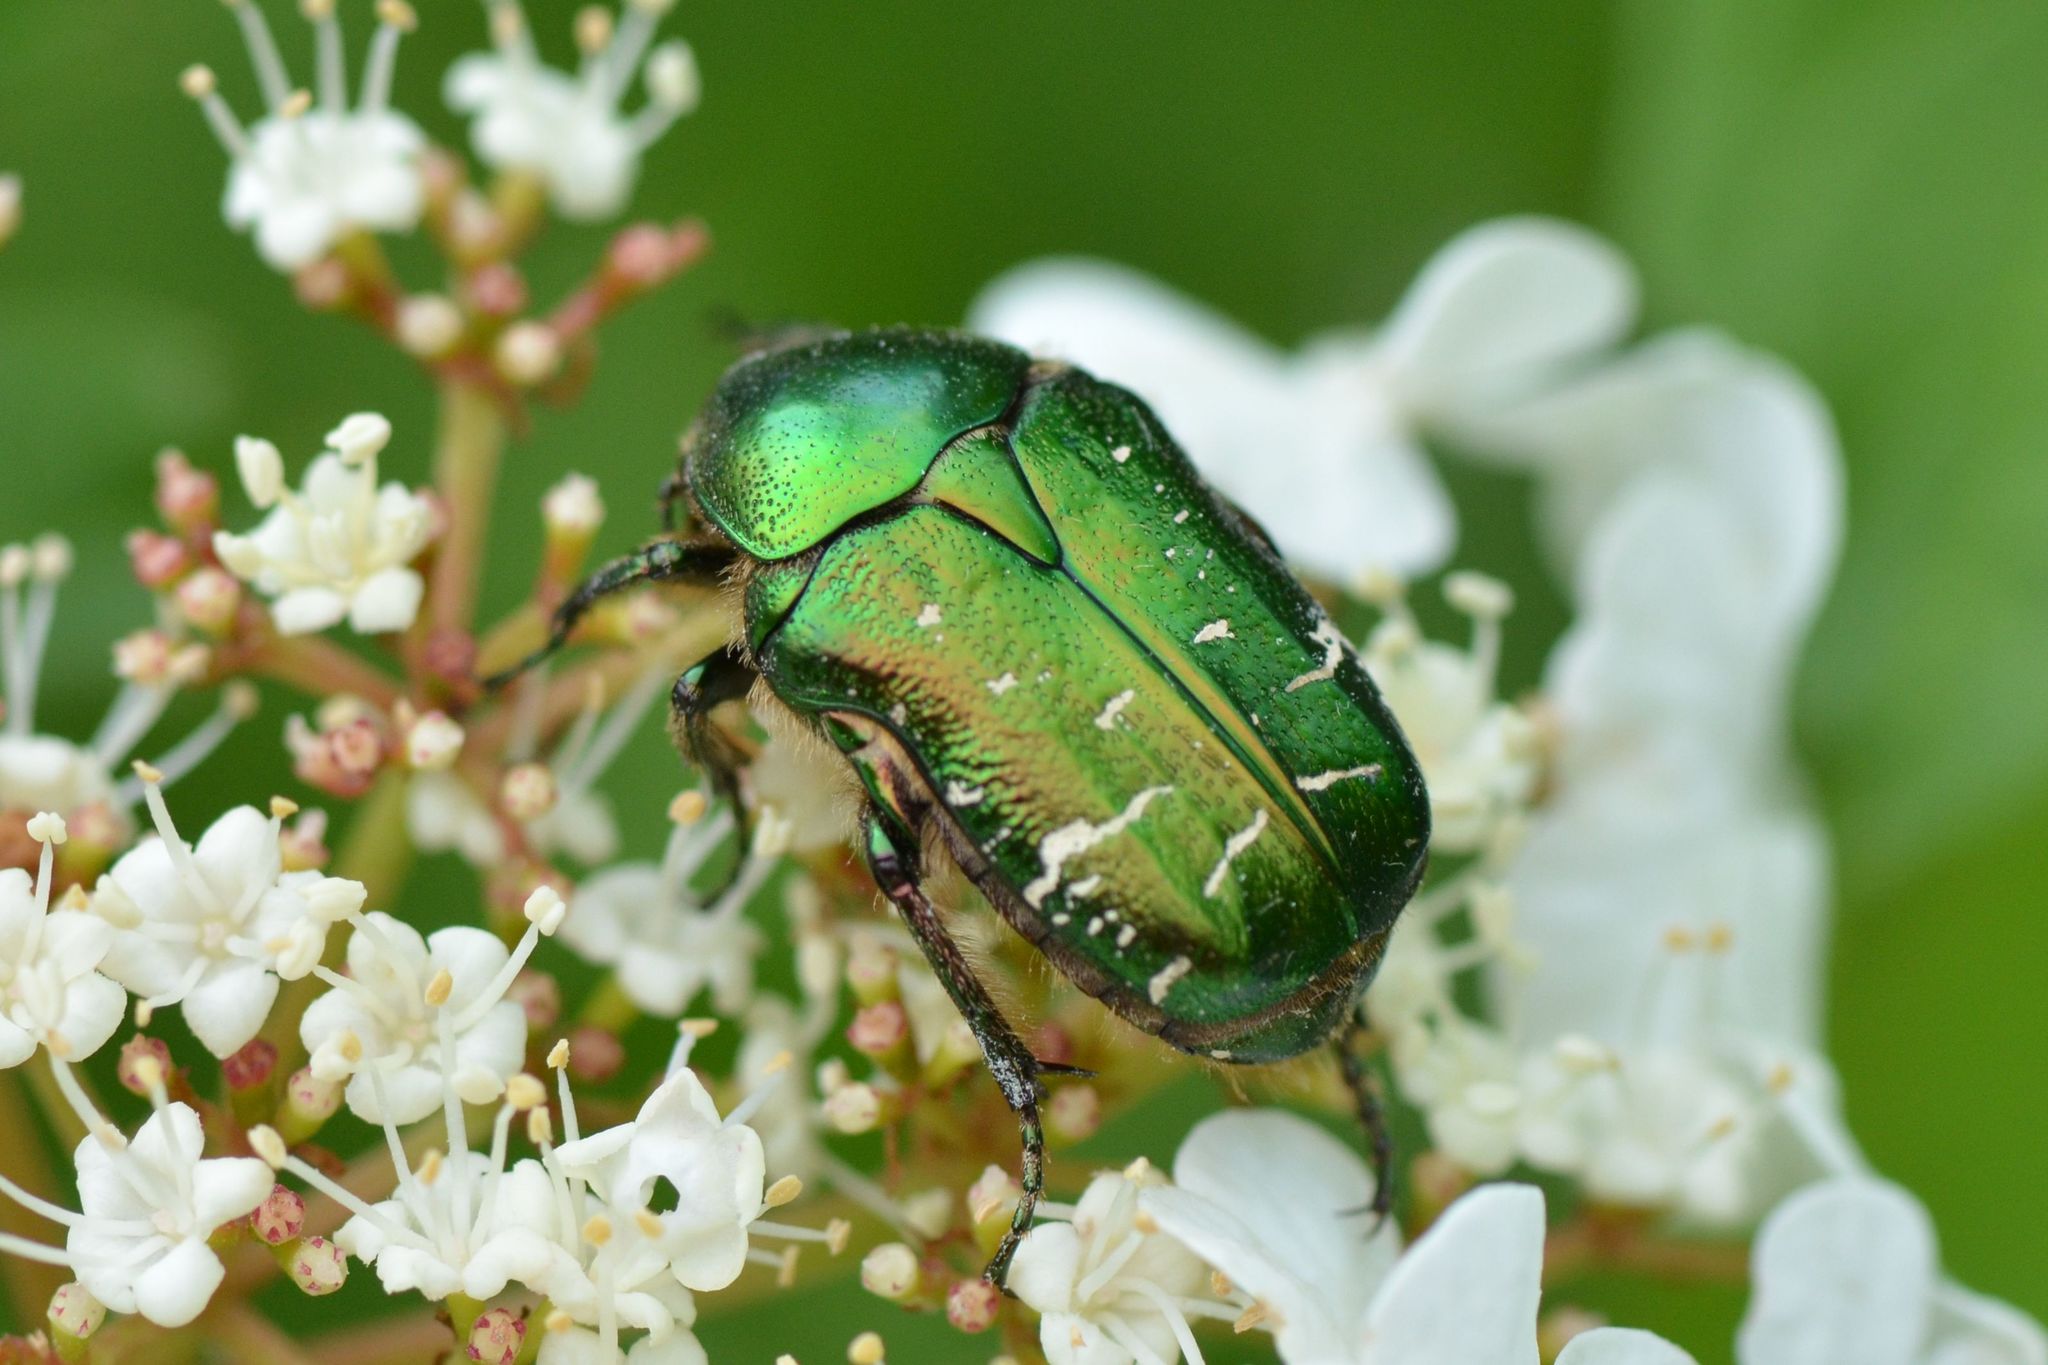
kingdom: Animalia
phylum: Arthropoda
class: Insecta
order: Coleoptera
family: Scarabaeidae
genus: Cetonia
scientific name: Cetonia aurata
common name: Rose chafer
